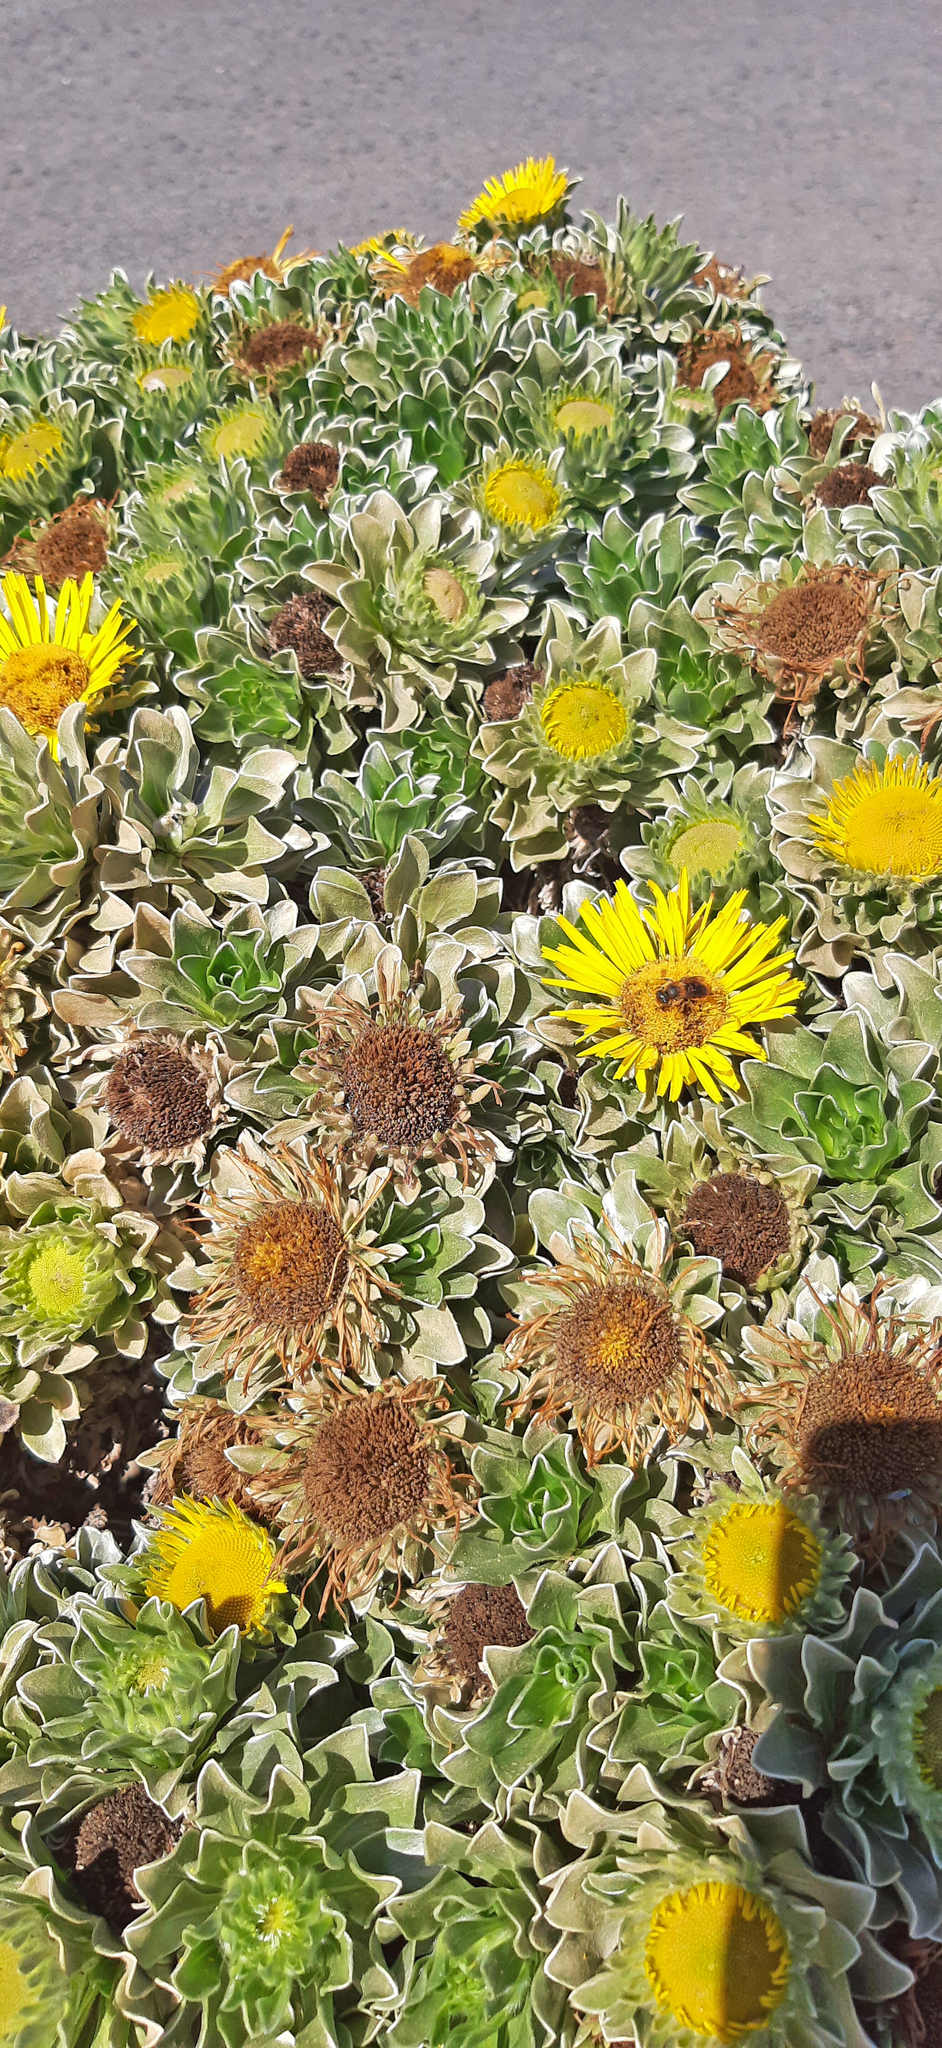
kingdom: Plantae
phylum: Tracheophyta
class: Magnoliopsida
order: Asterales
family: Asteraceae
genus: Asteriscus
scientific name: Asteriscus sericeus
